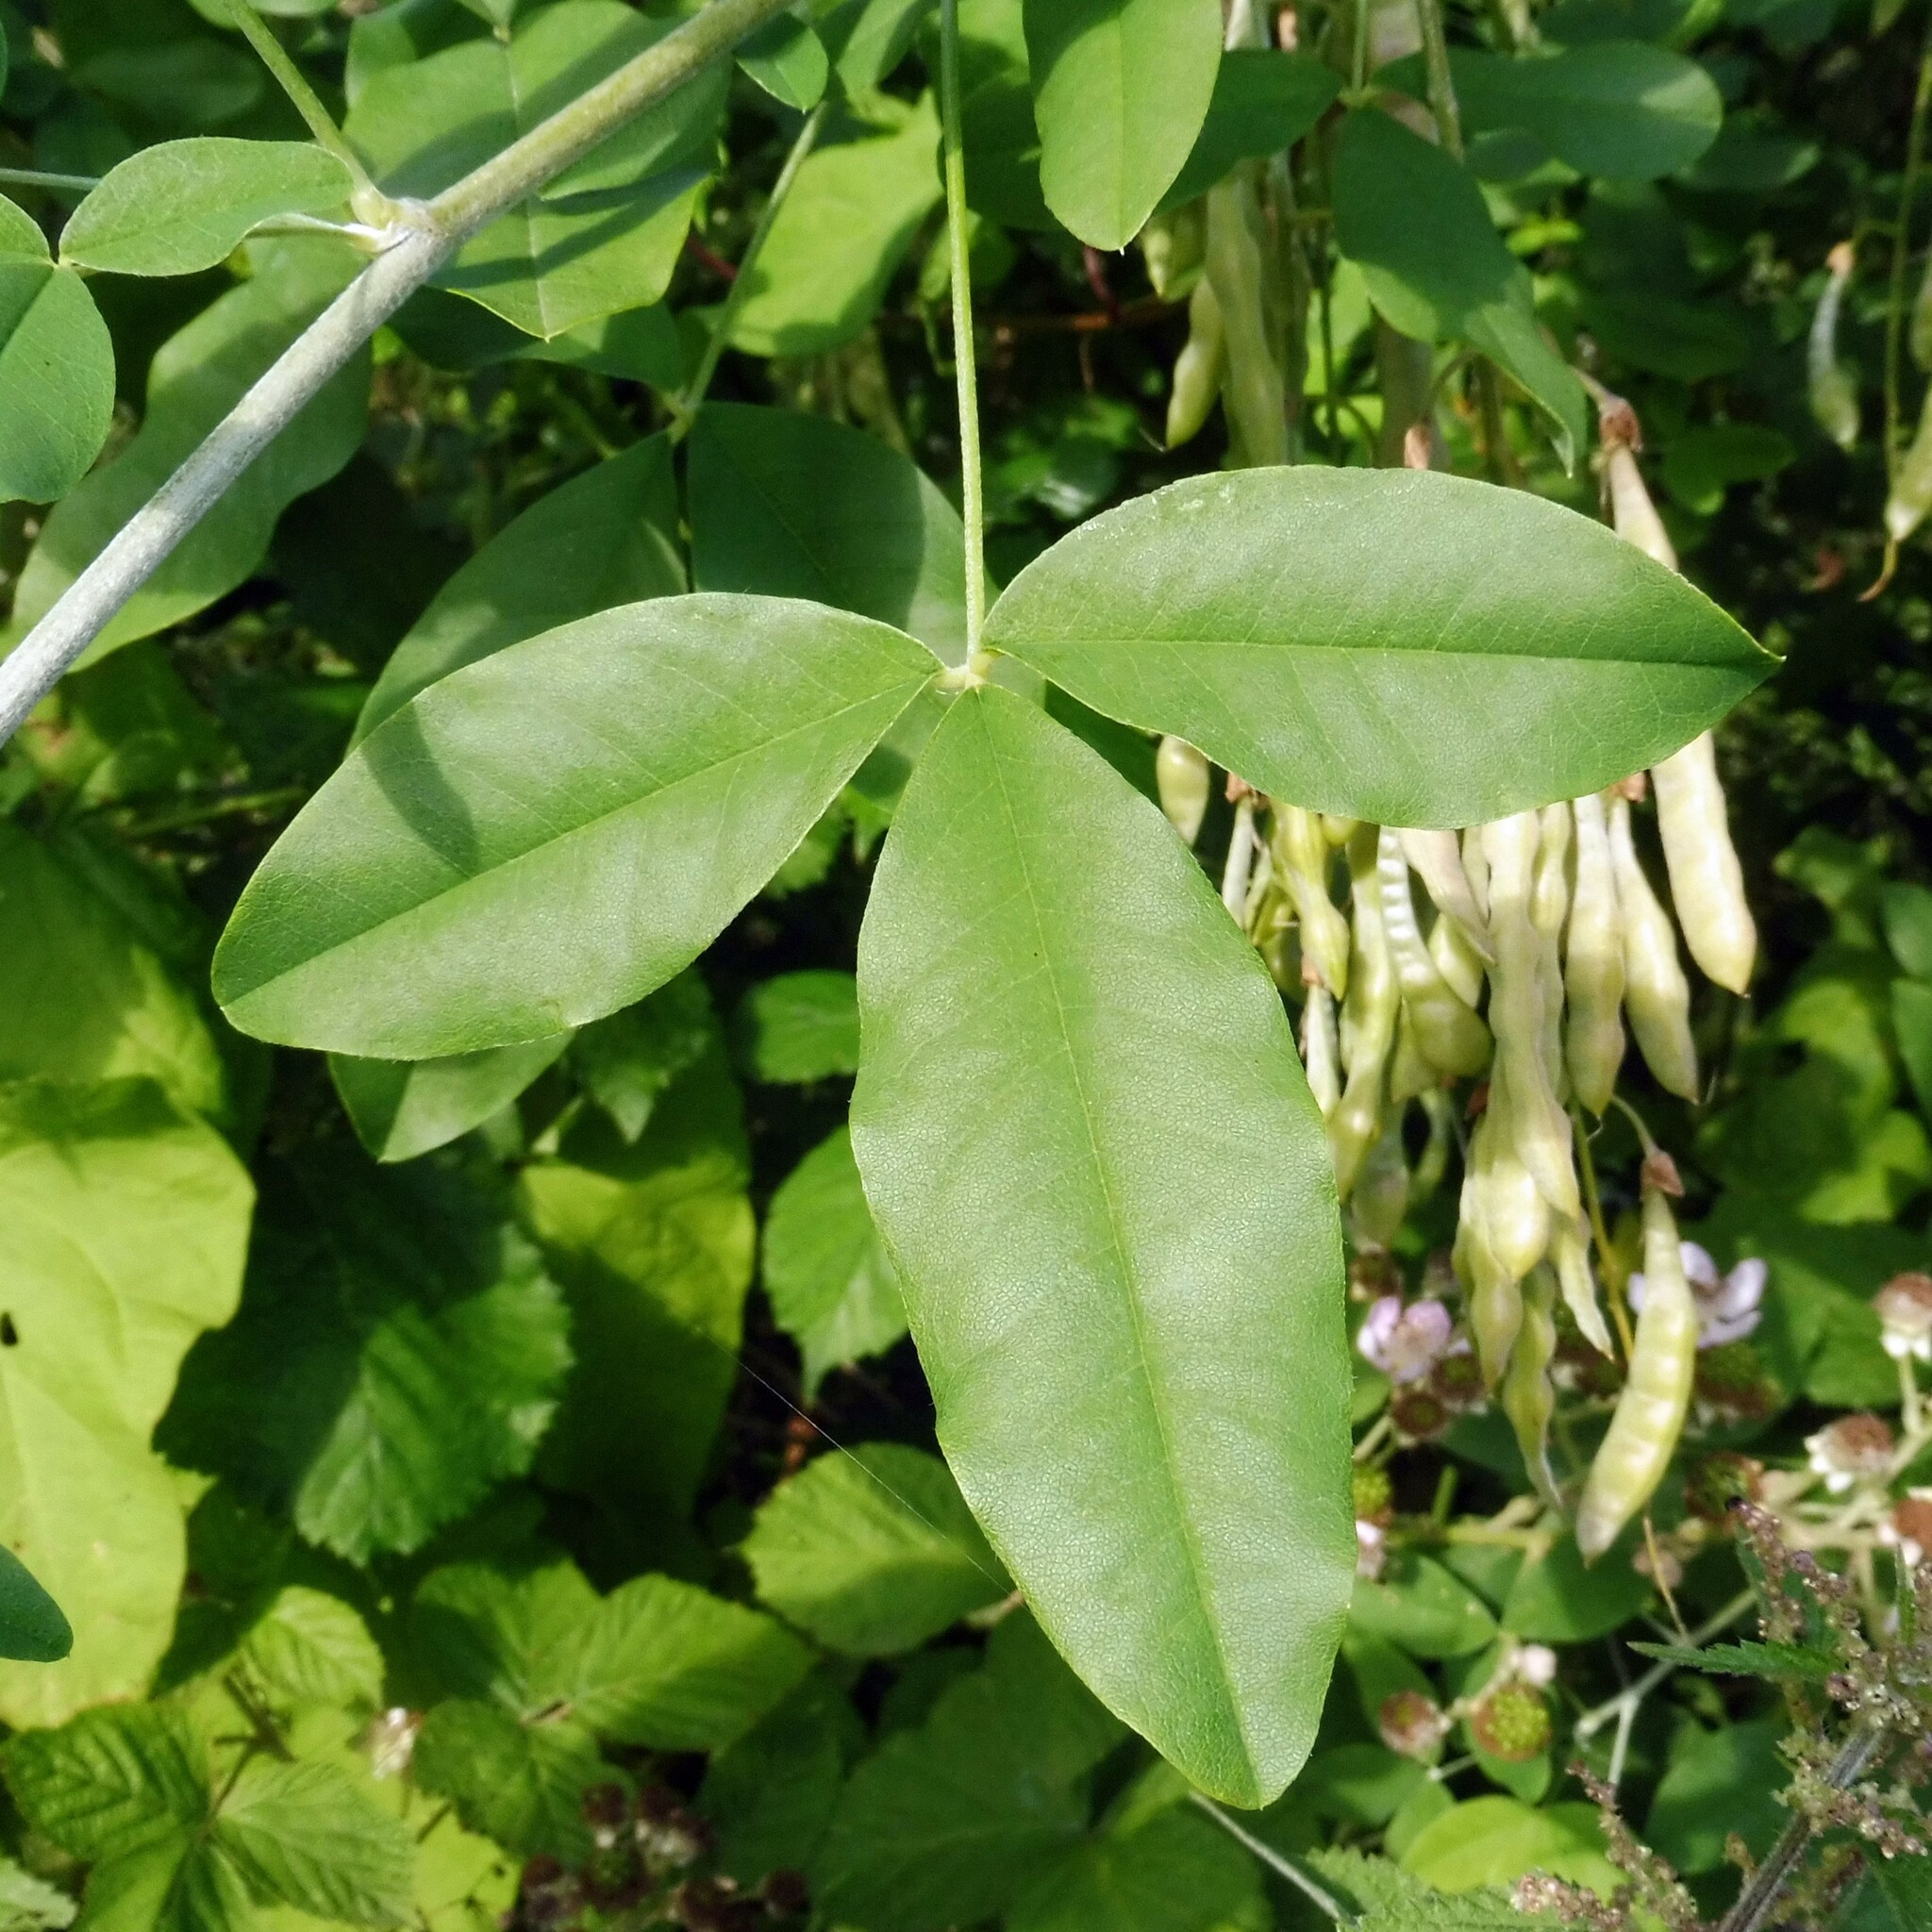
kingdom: Plantae
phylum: Tracheophyta
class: Magnoliopsida
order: Fabales
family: Fabaceae
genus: Laburnum
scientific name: Laburnum anagyroides
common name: Laburnum
